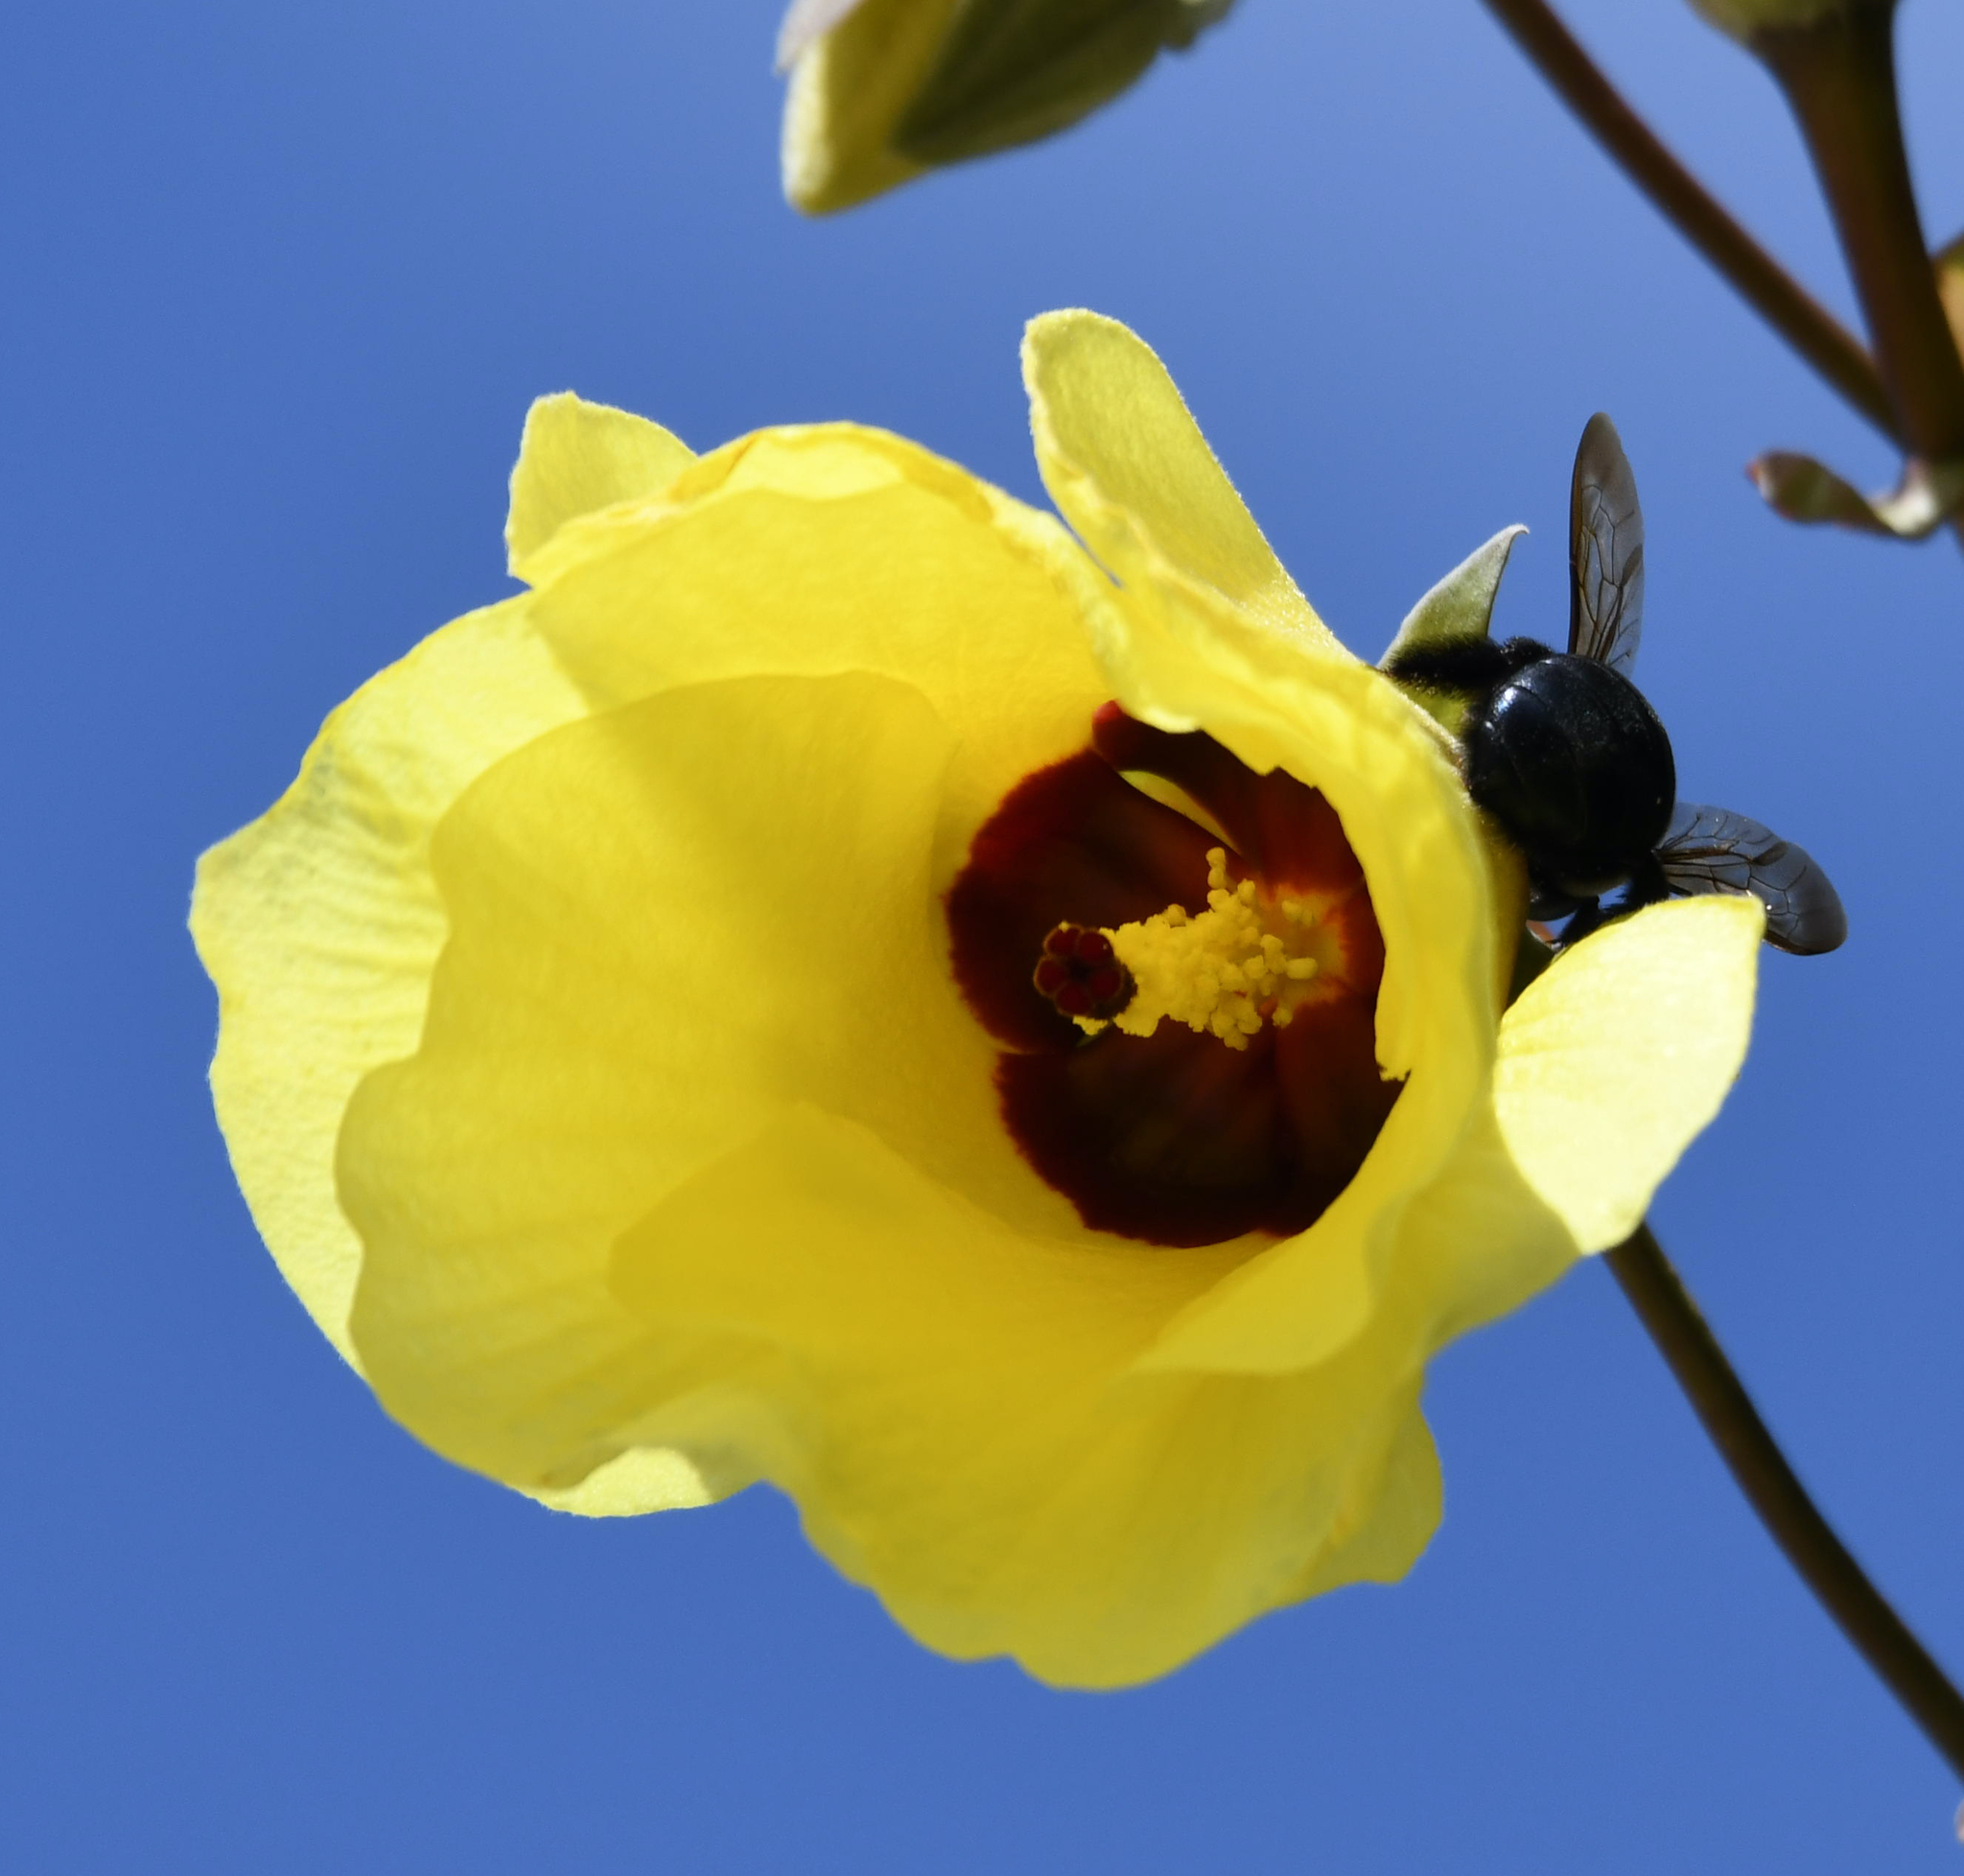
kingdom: Plantae
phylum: Tracheophyta
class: Magnoliopsida
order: Malvales
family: Malvaceae
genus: Talipariti
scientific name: Talipariti tiliaceum
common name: Sea hibiscus
